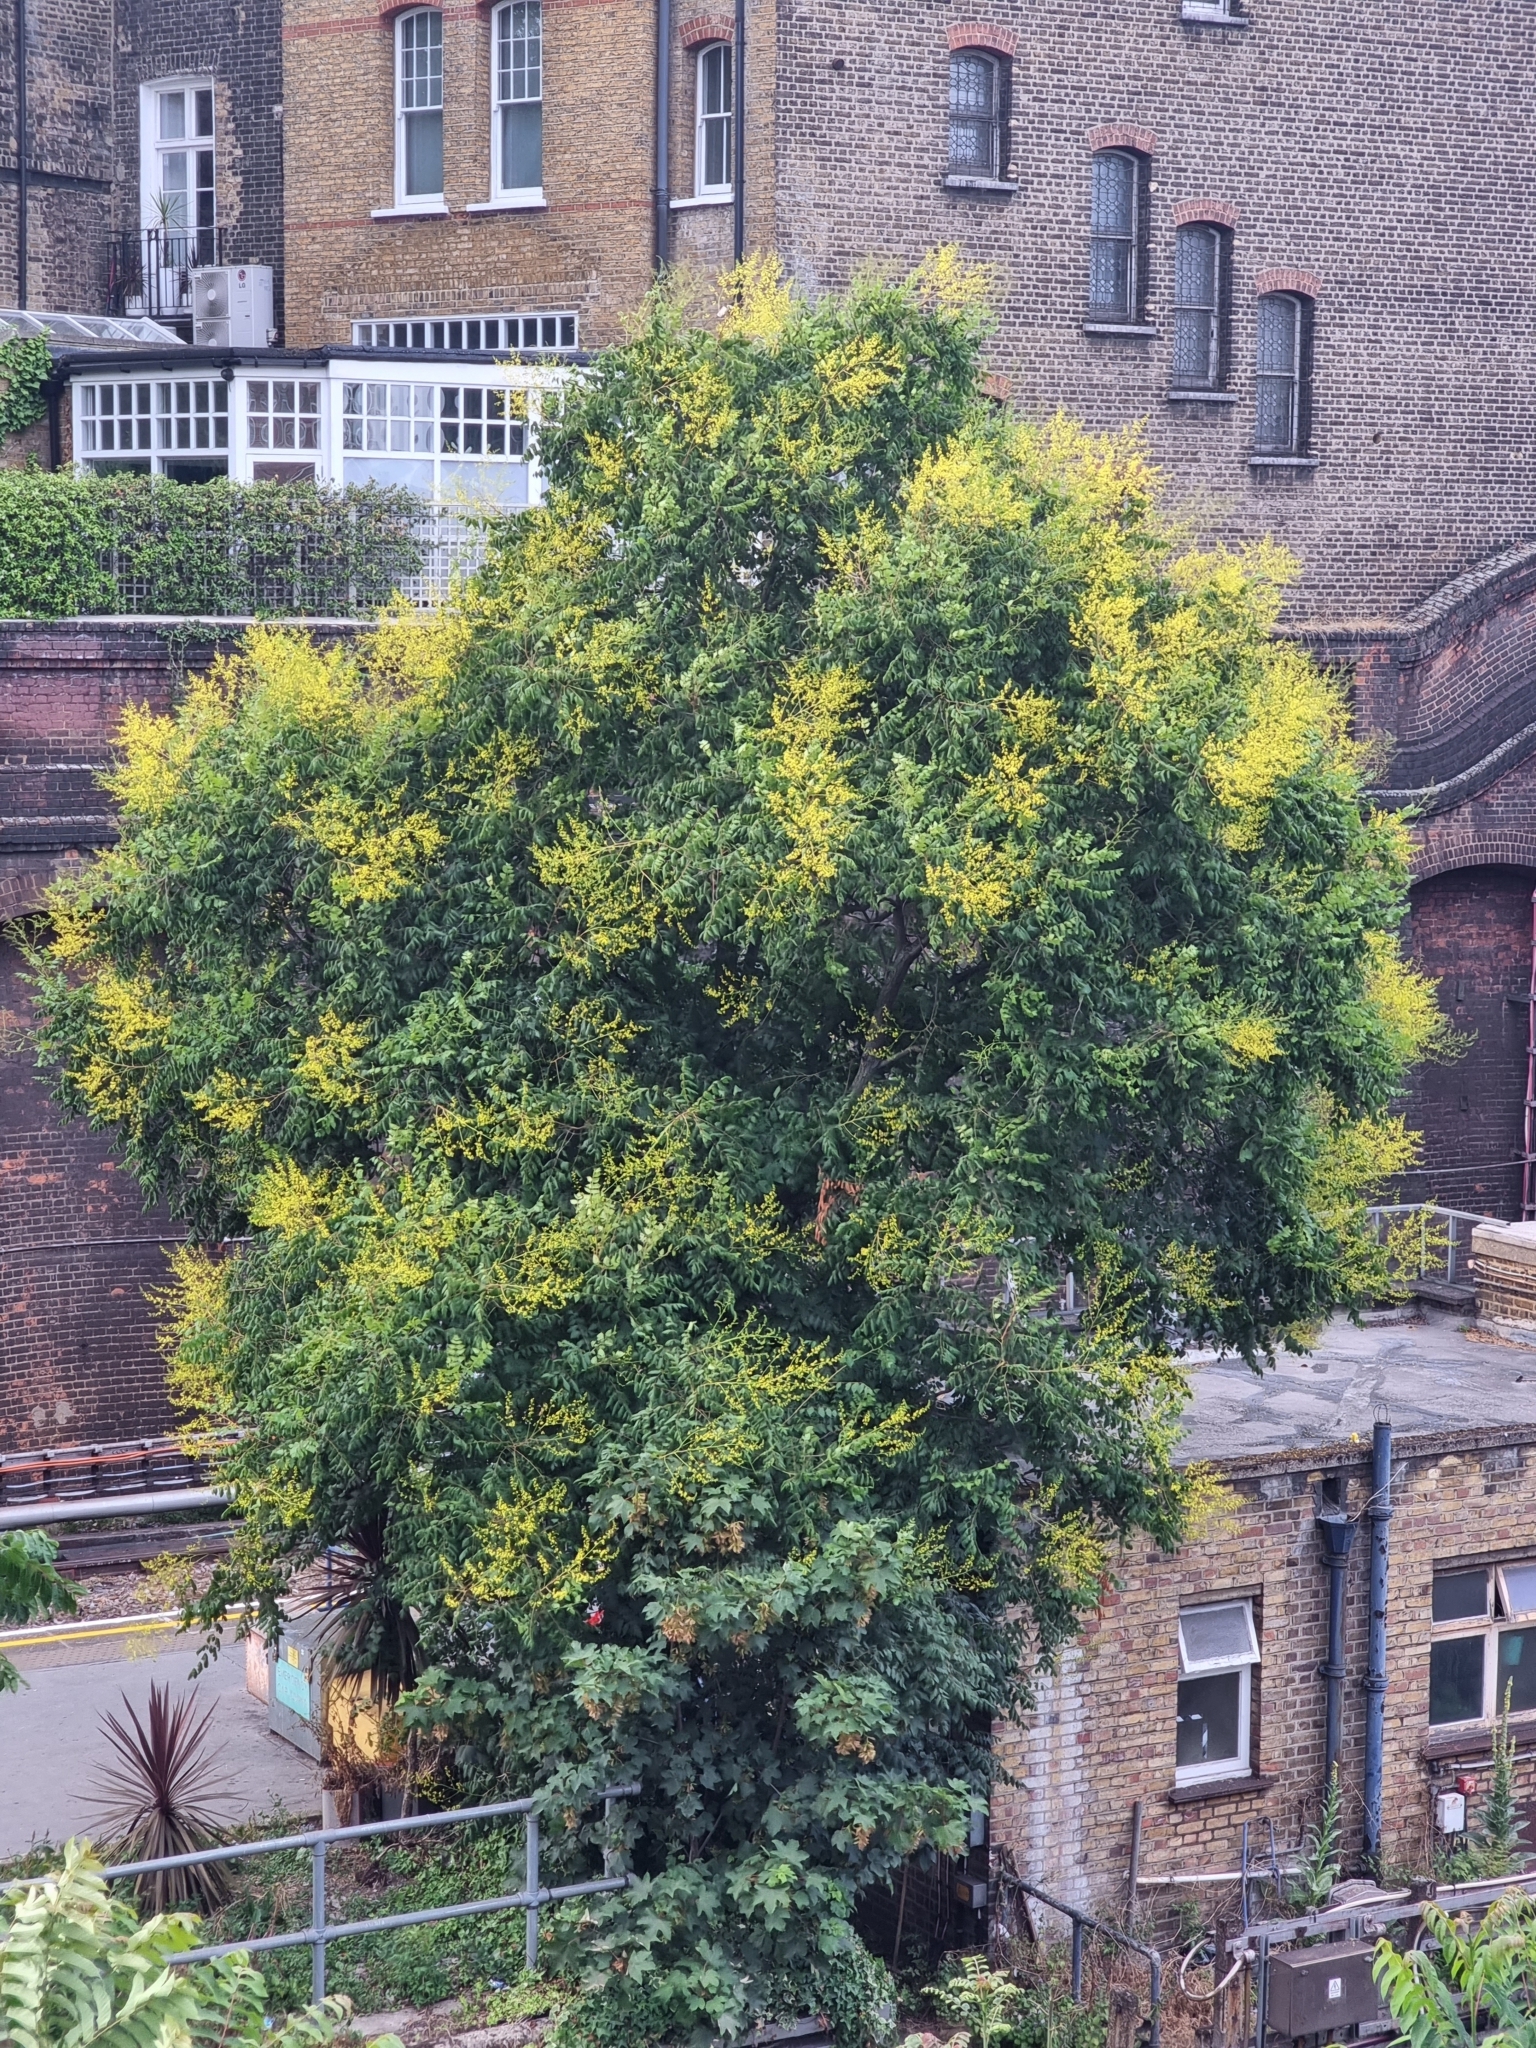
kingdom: Plantae
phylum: Tracheophyta
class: Magnoliopsida
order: Sapindales
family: Sapindaceae
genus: Koelreuteria
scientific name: Koelreuteria paniculata
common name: Pride-of-india
